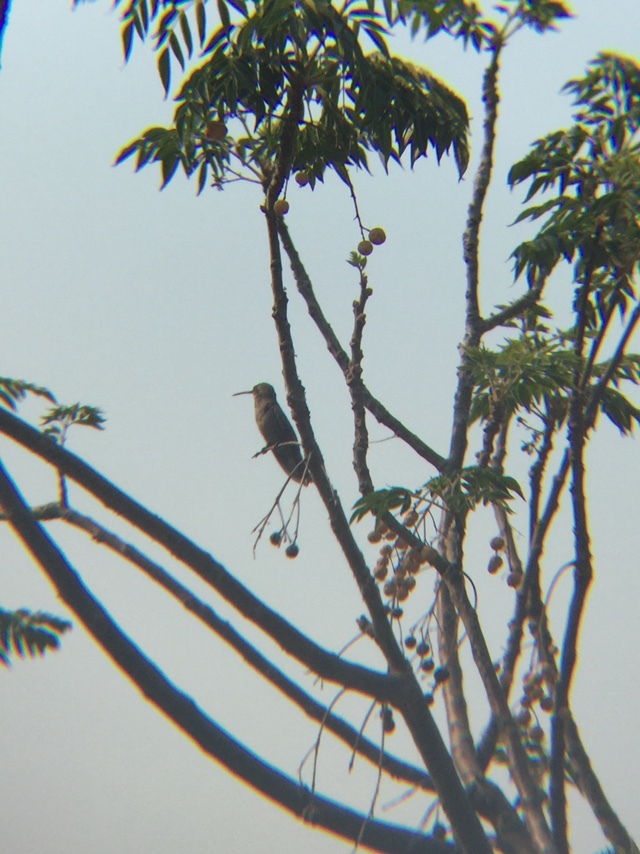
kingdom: Animalia
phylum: Chordata
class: Aves
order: Apodiformes
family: Trochilidae
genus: Cynanthus
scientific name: Cynanthus latirostris
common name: Broad-billed hummingbird
